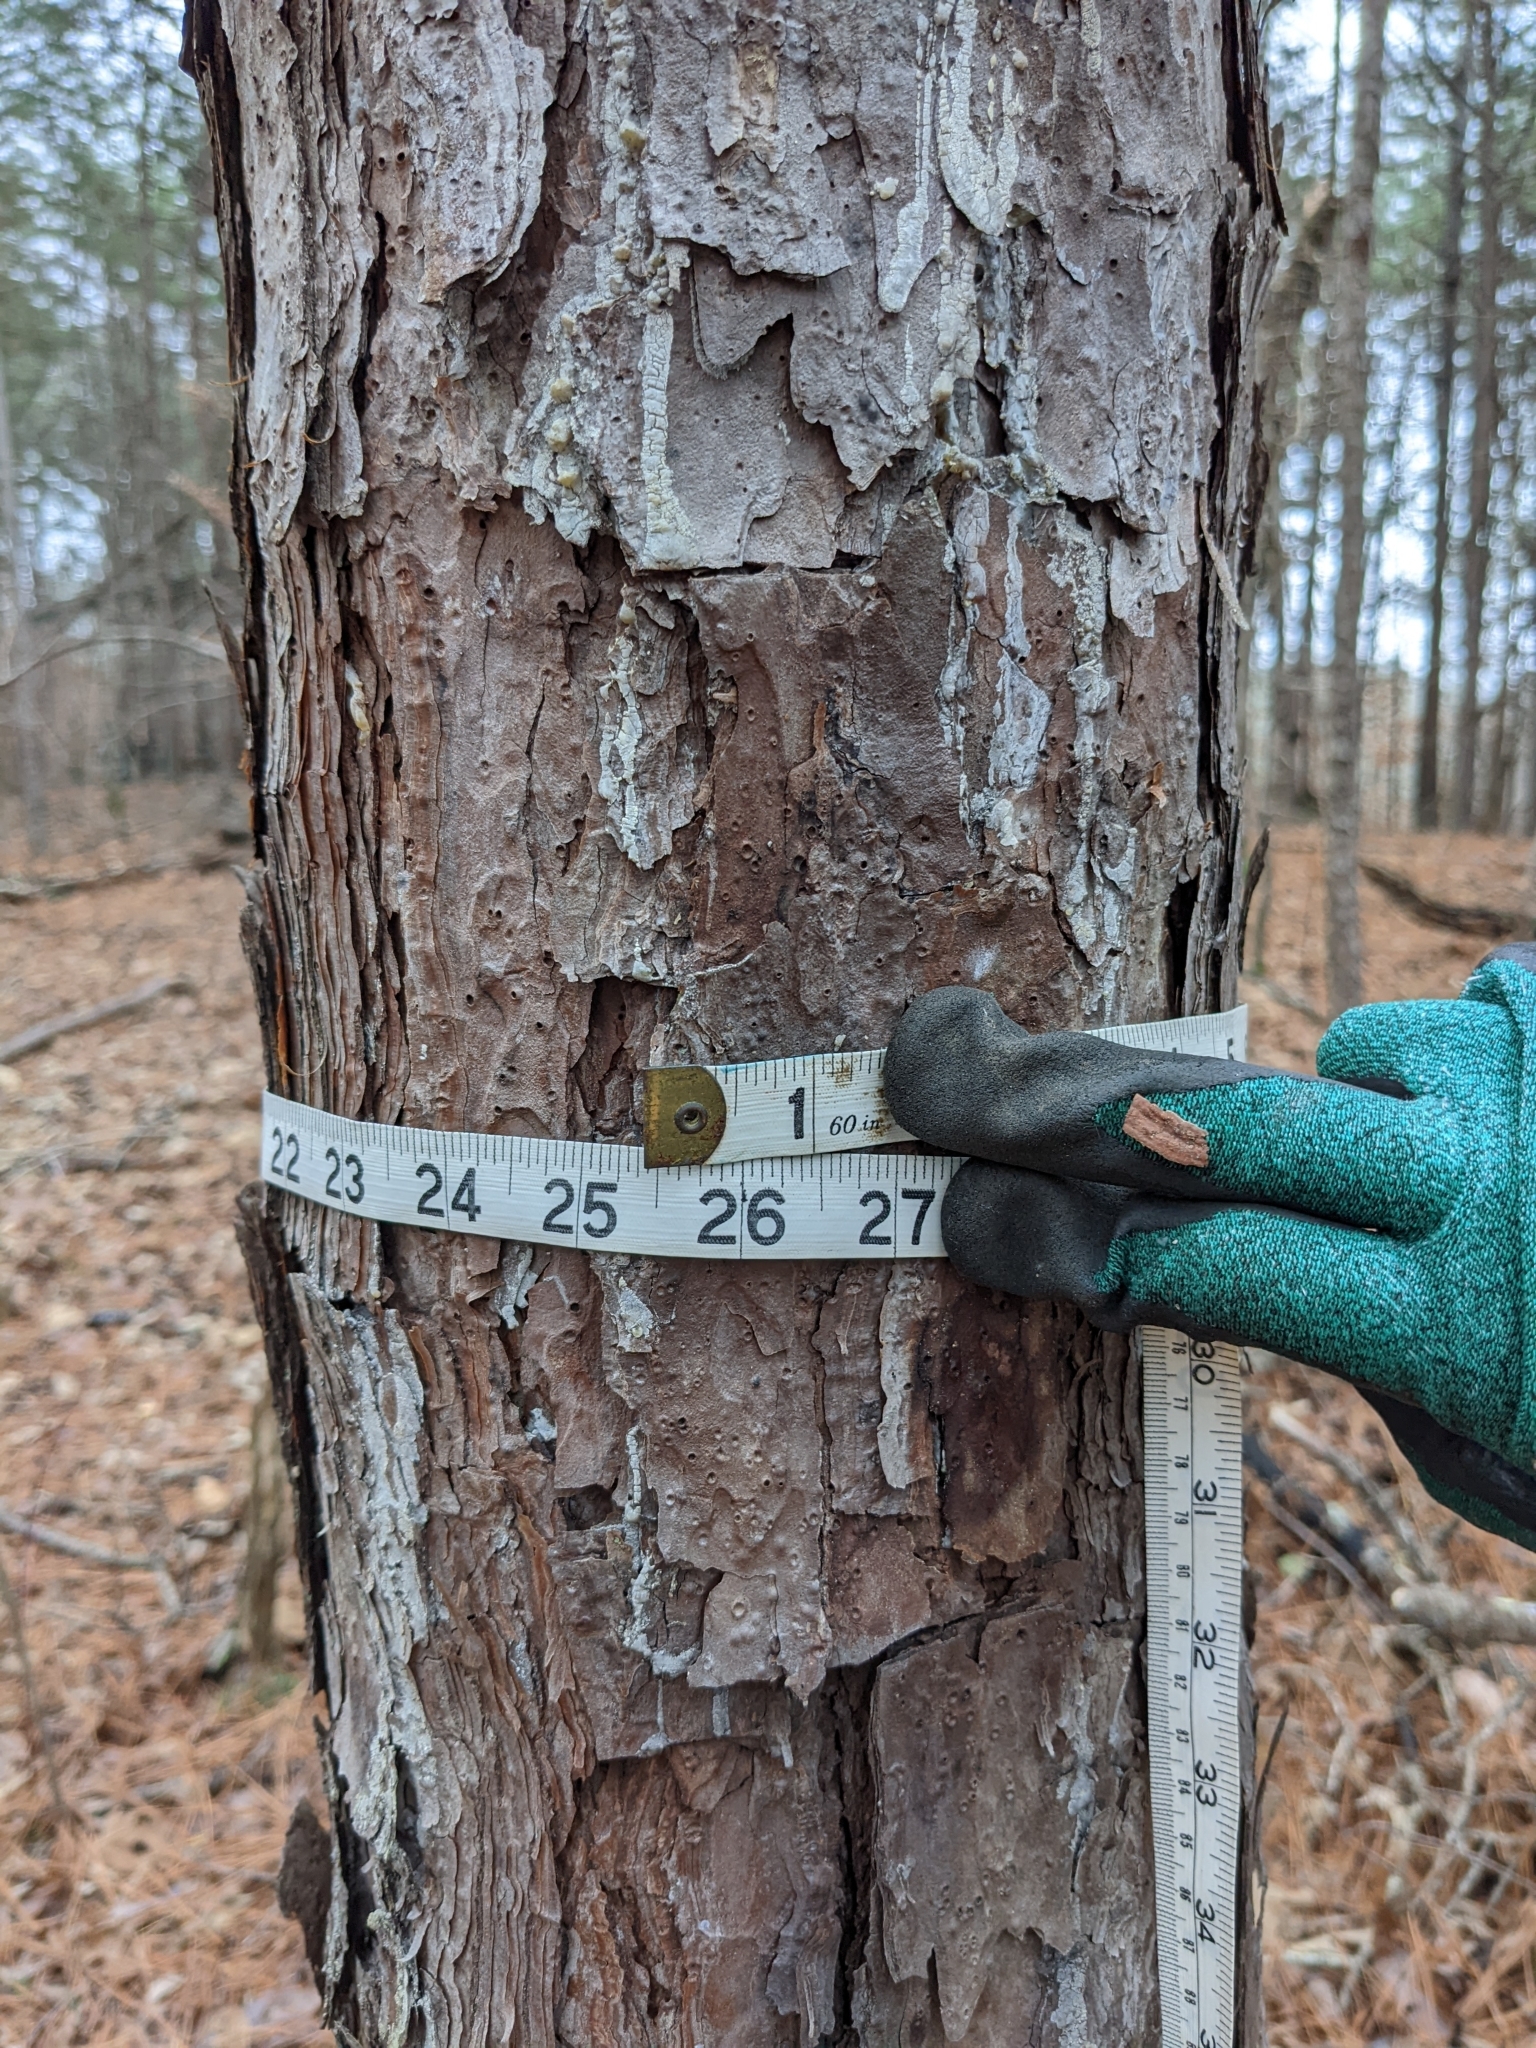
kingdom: Plantae
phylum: Tracheophyta
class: Pinopsida
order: Pinales
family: Pinaceae
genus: Pinus
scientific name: Pinus echinata
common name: Shortleaf pine
